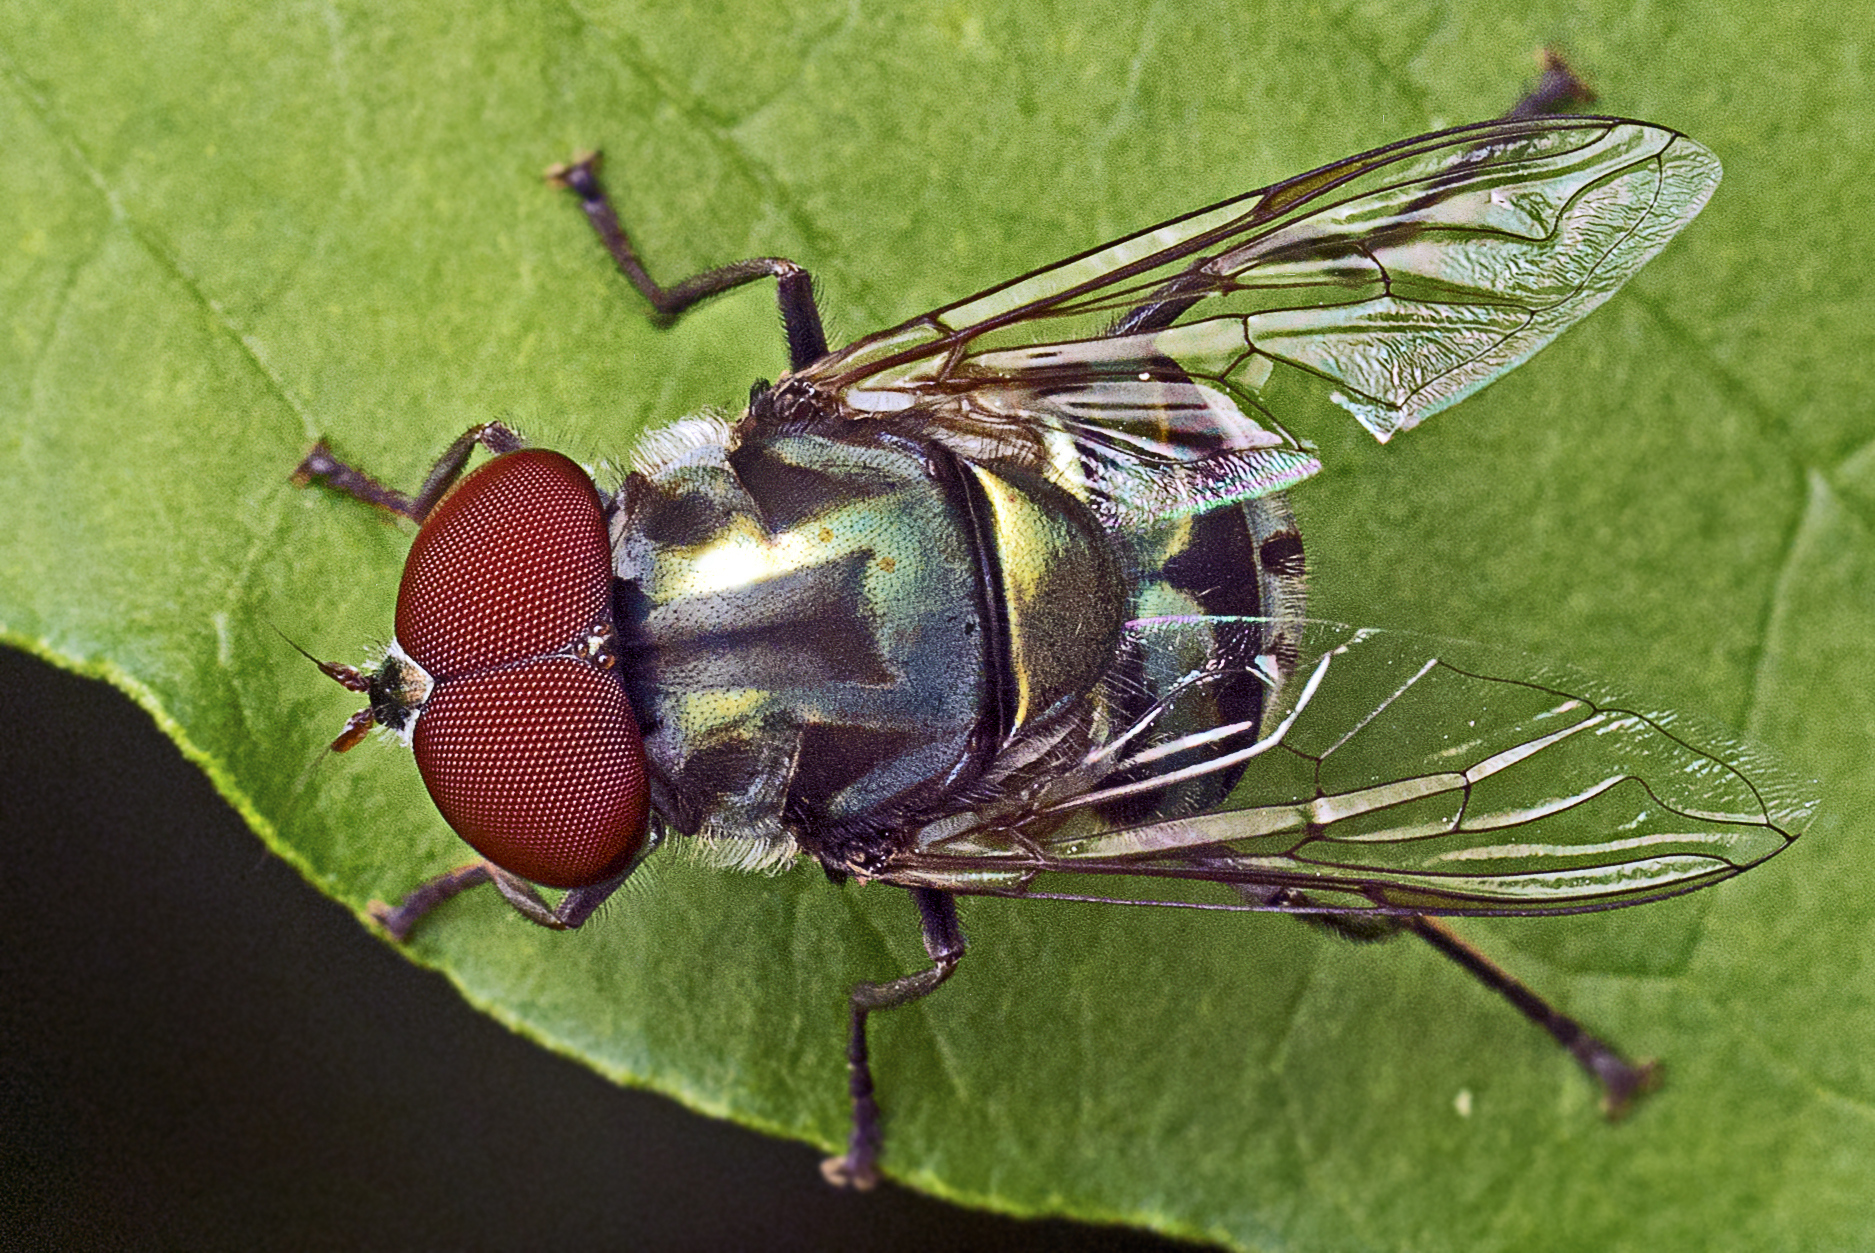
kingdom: Animalia
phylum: Arthropoda
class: Insecta
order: Diptera
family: Syrphidae
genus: Austalis
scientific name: Austalis copiosa
